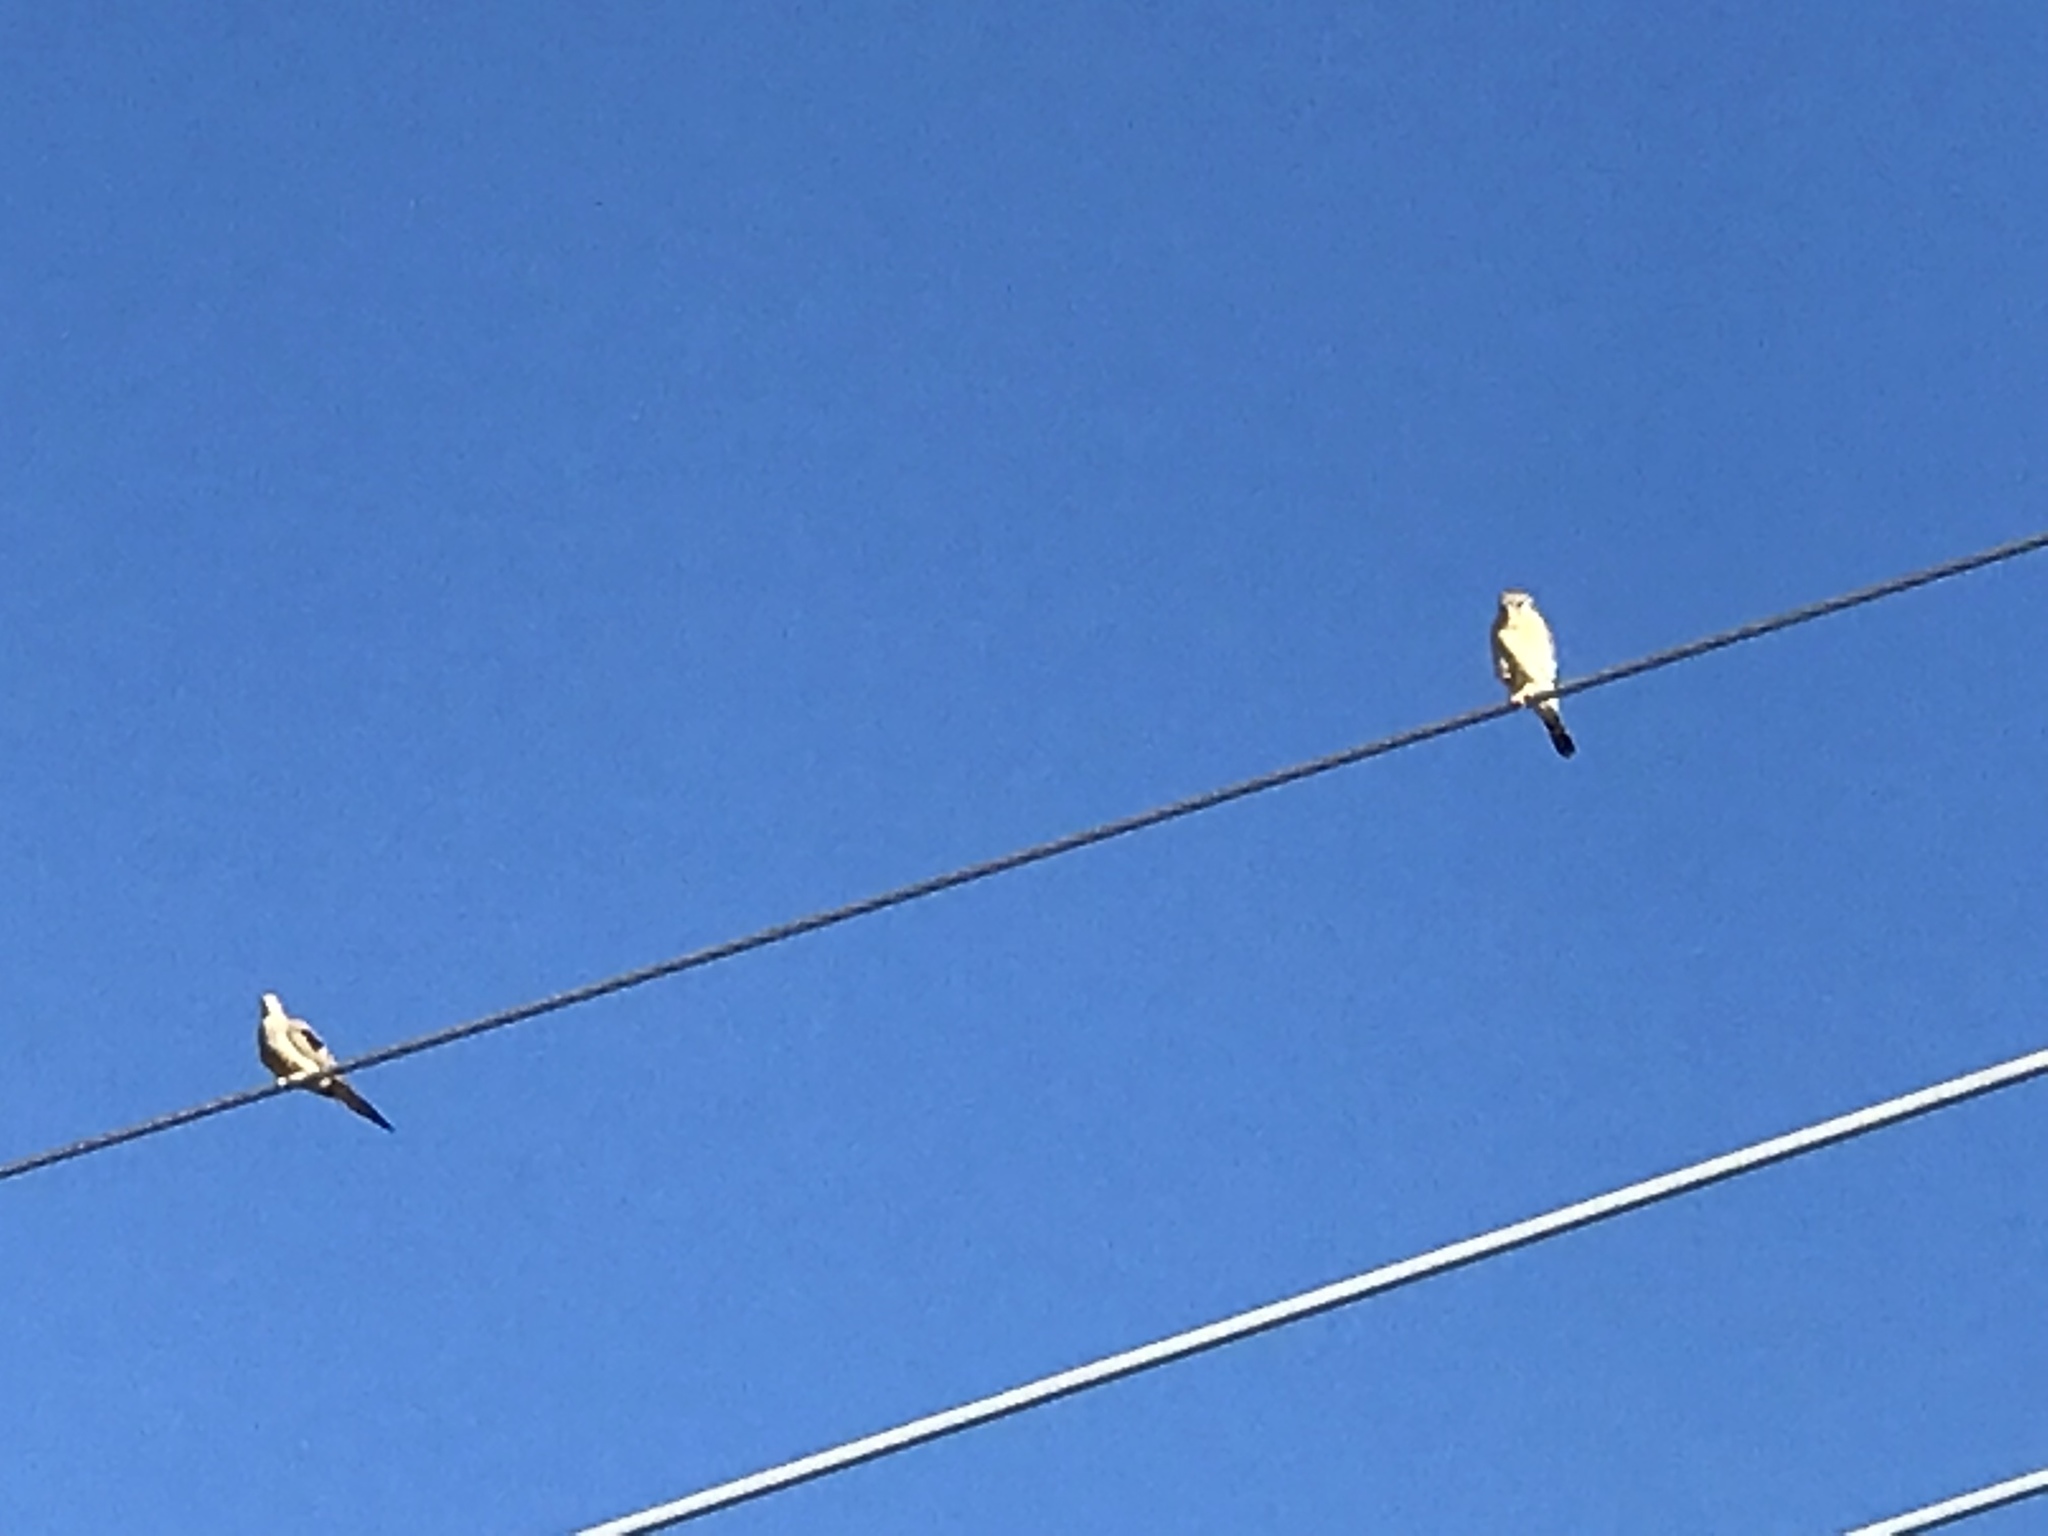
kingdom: Animalia
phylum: Chordata
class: Aves
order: Columbiformes
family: Columbidae
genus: Zenaida
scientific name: Zenaida macroura
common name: Mourning dove
